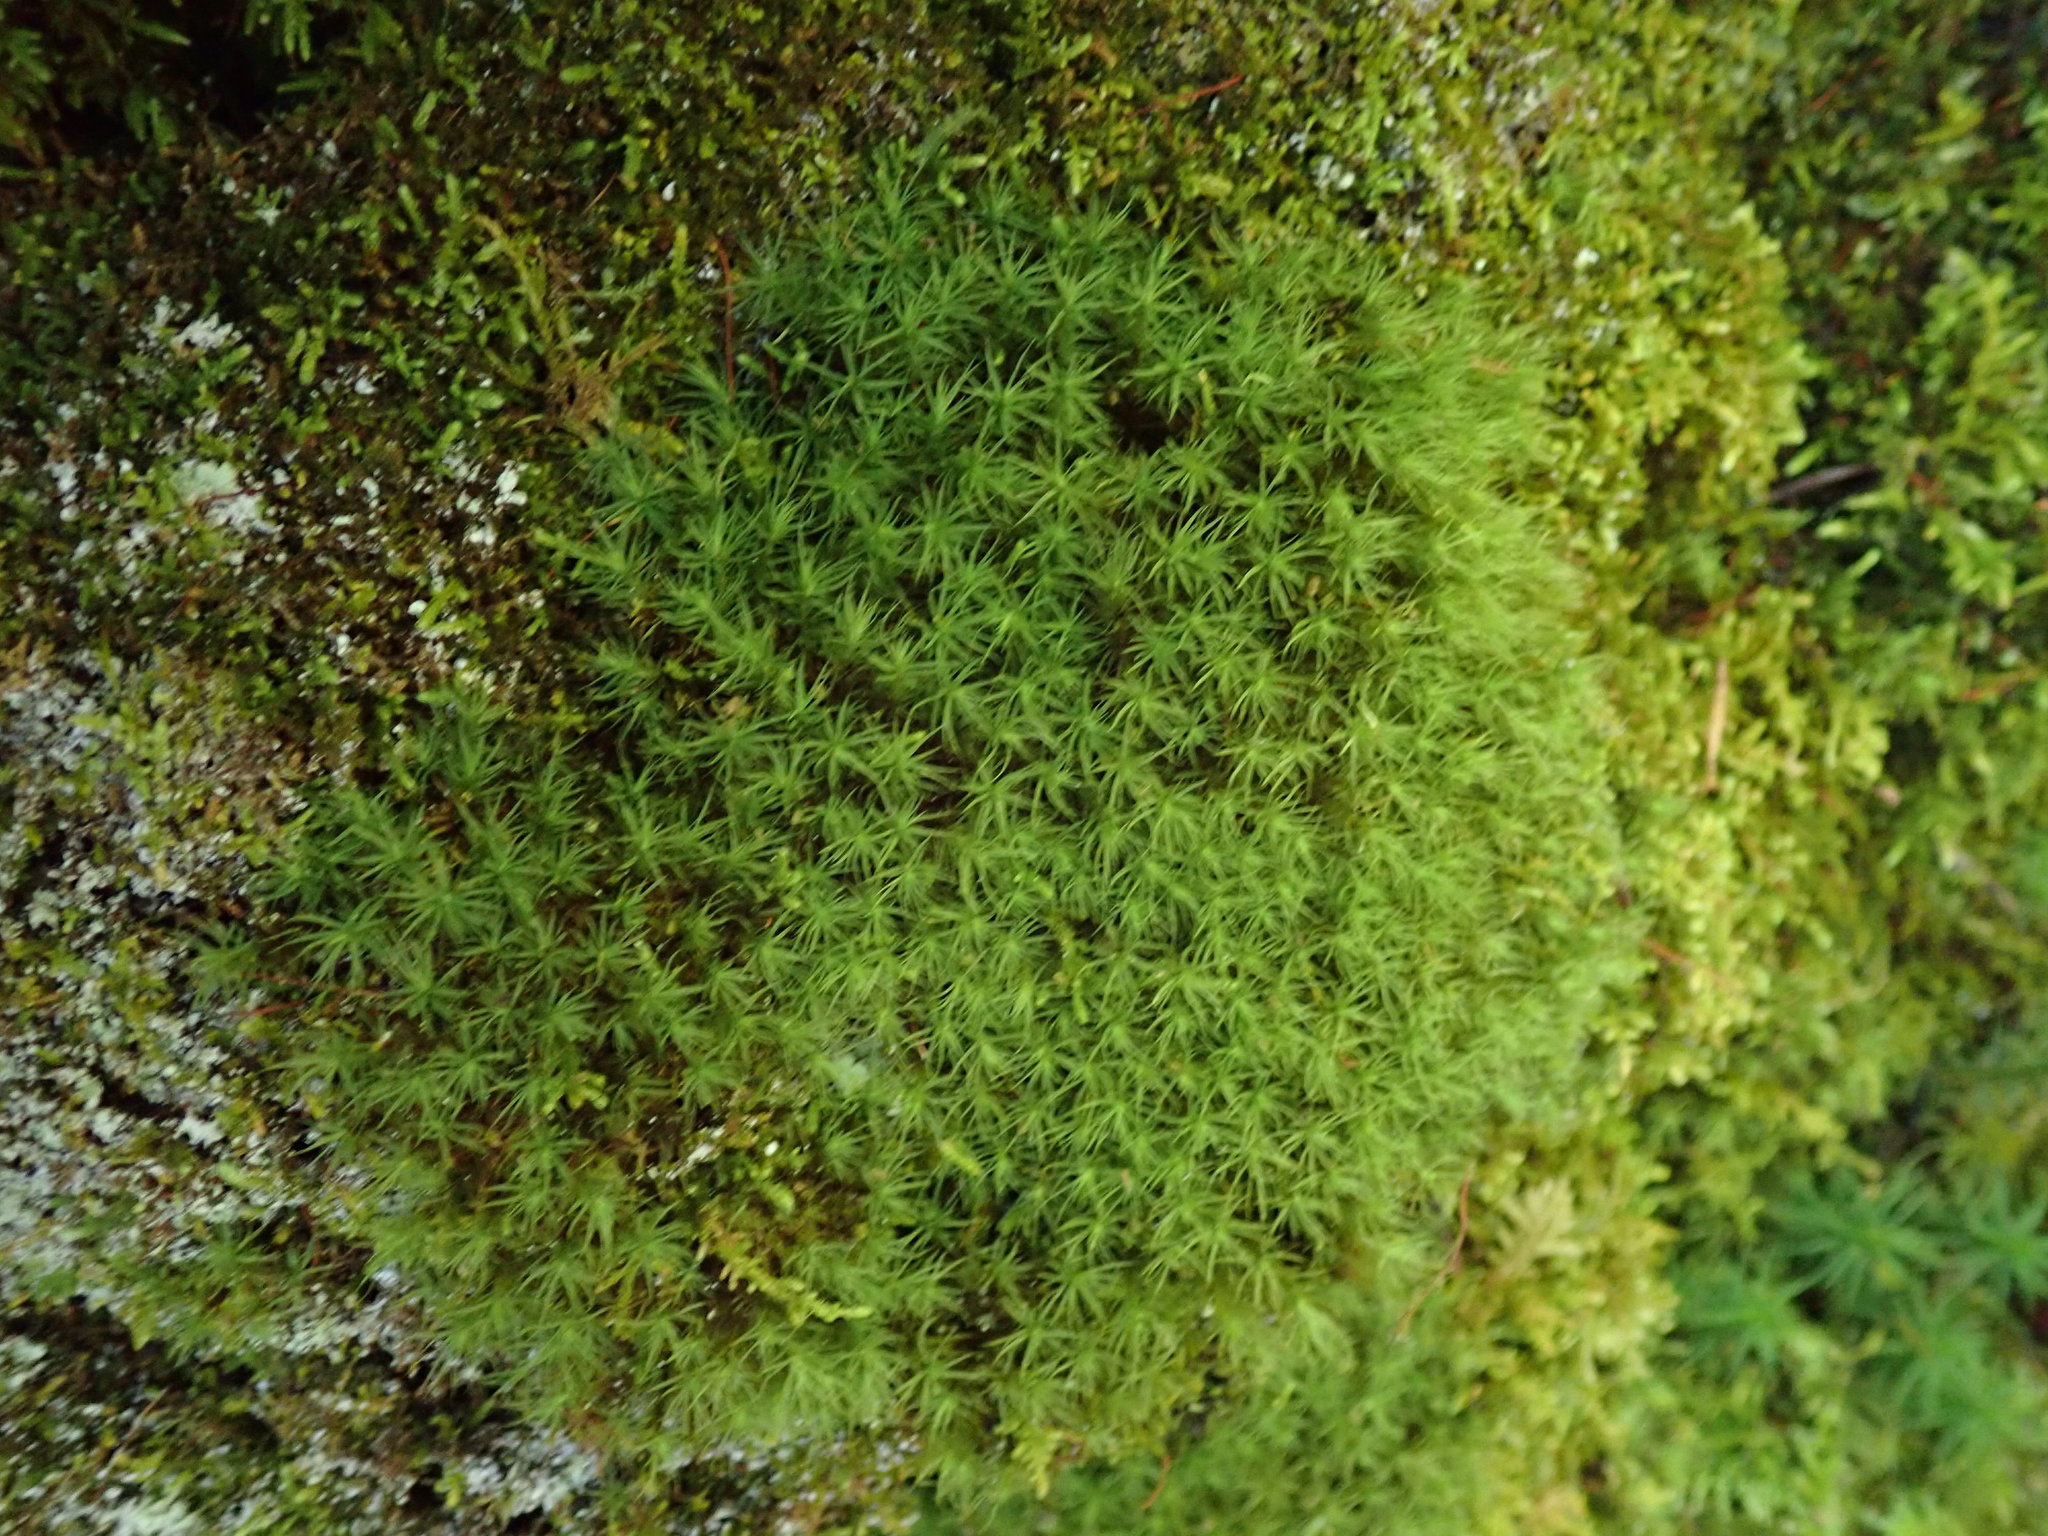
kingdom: Plantae
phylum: Bryophyta
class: Bryopsida
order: Bartramiales
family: Bartramiaceae
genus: Bartramia
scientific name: Bartramia ithyphylla
